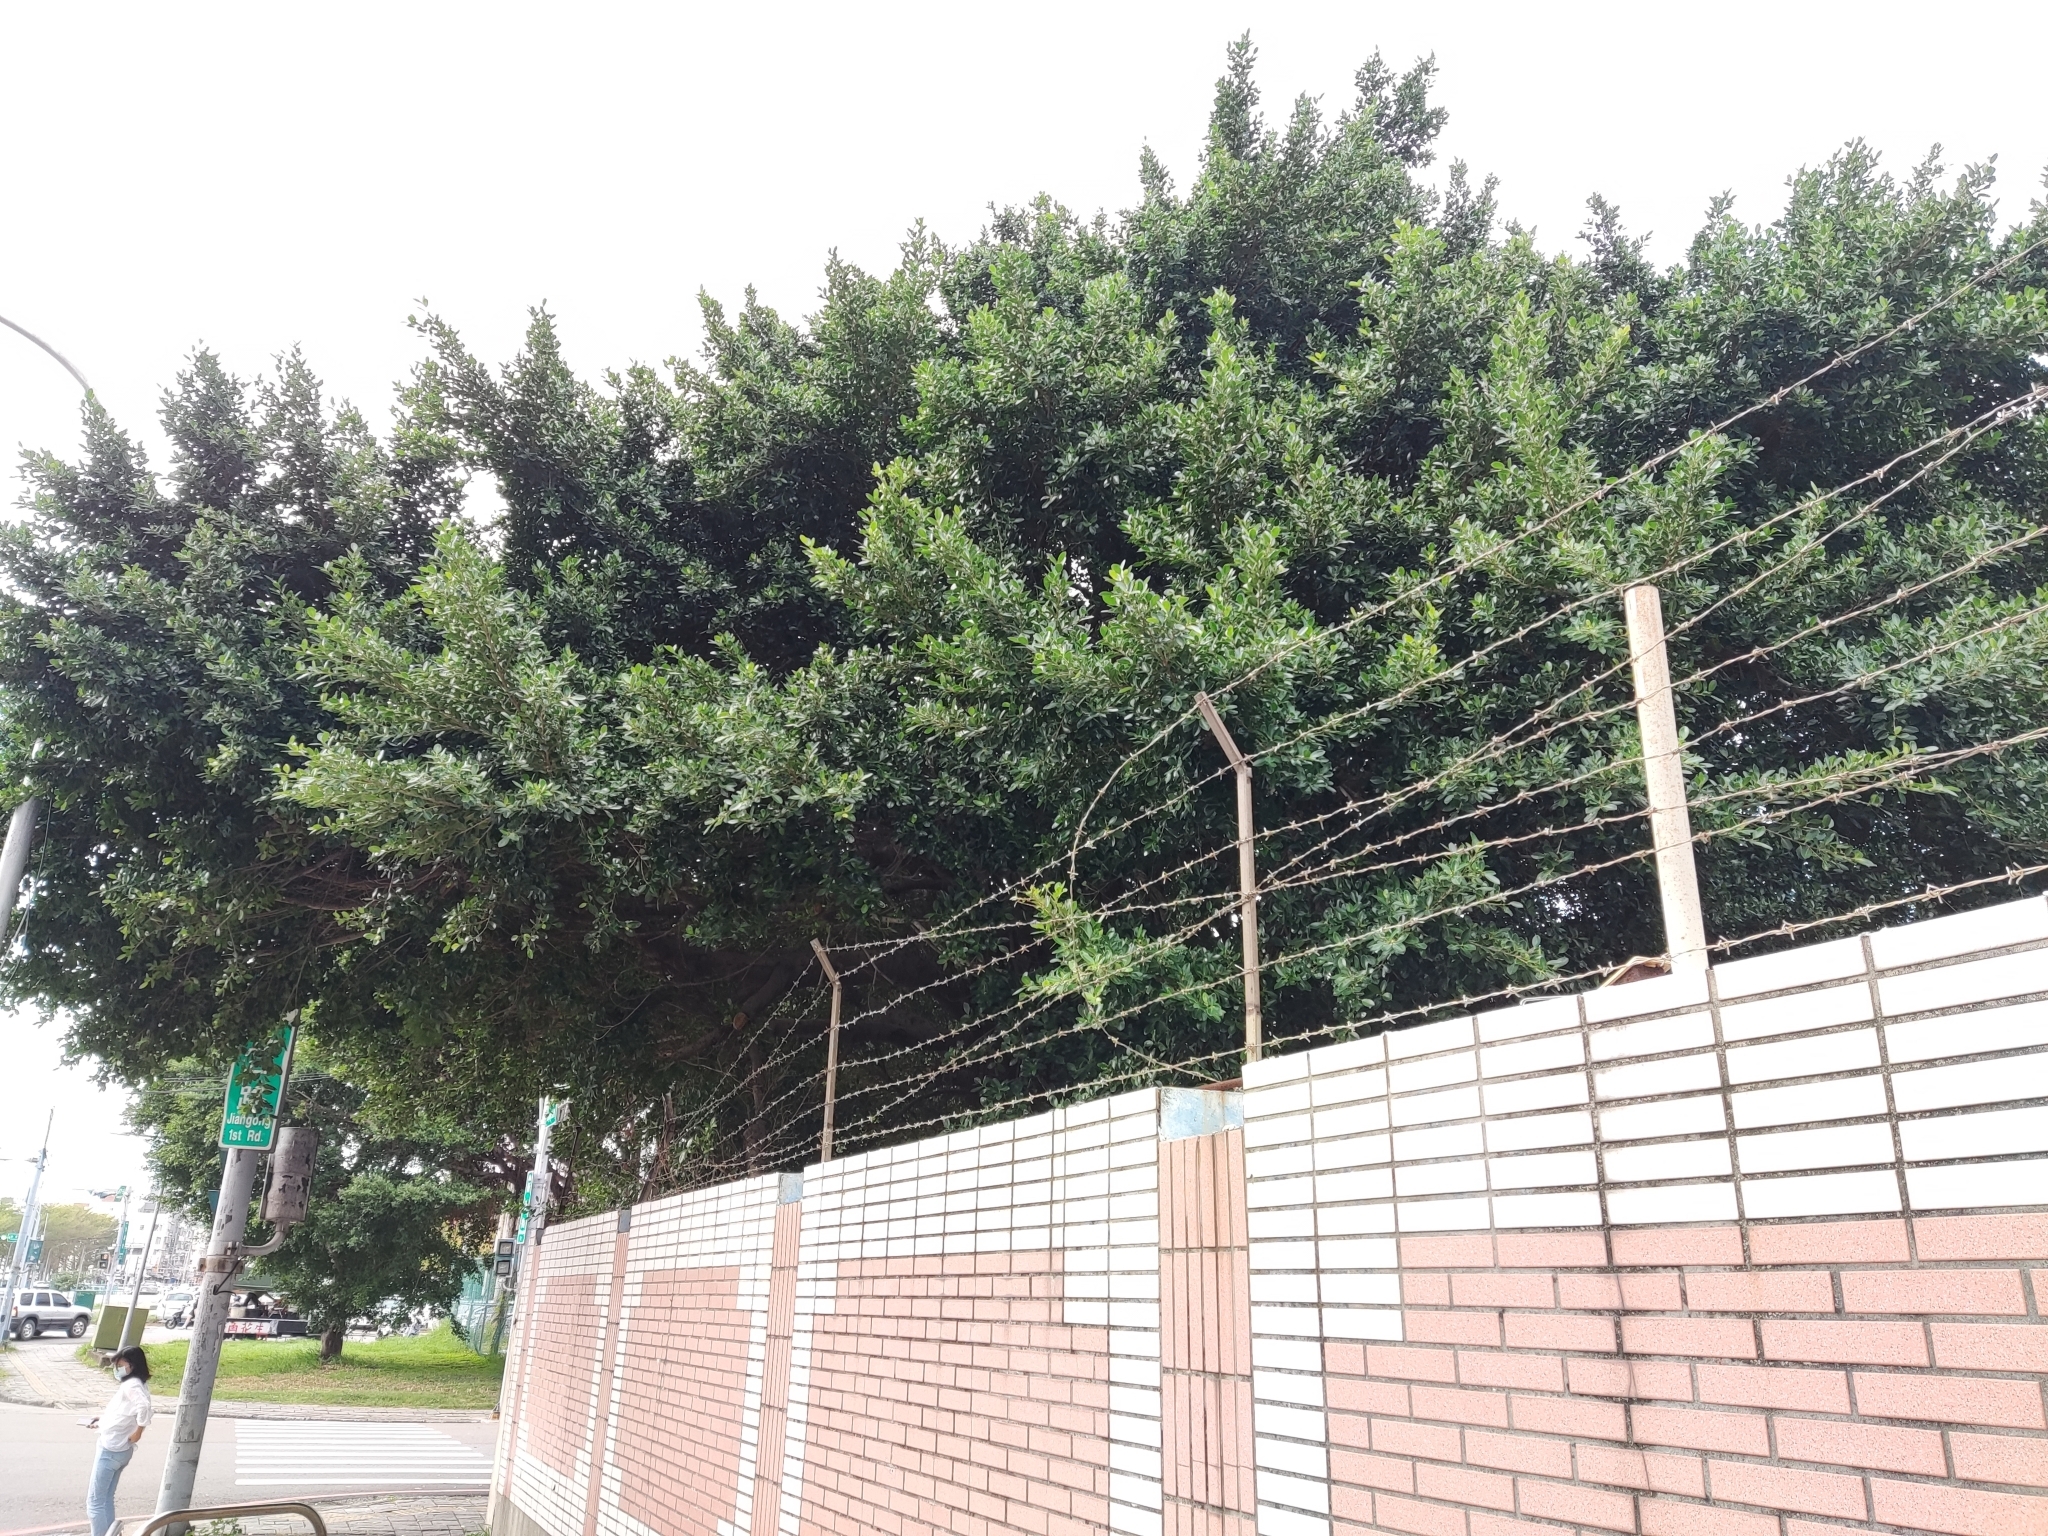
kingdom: Plantae
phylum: Tracheophyta
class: Magnoliopsida
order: Rosales
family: Moraceae
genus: Ficus
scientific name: Ficus microcarpa
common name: Chinese banyan
